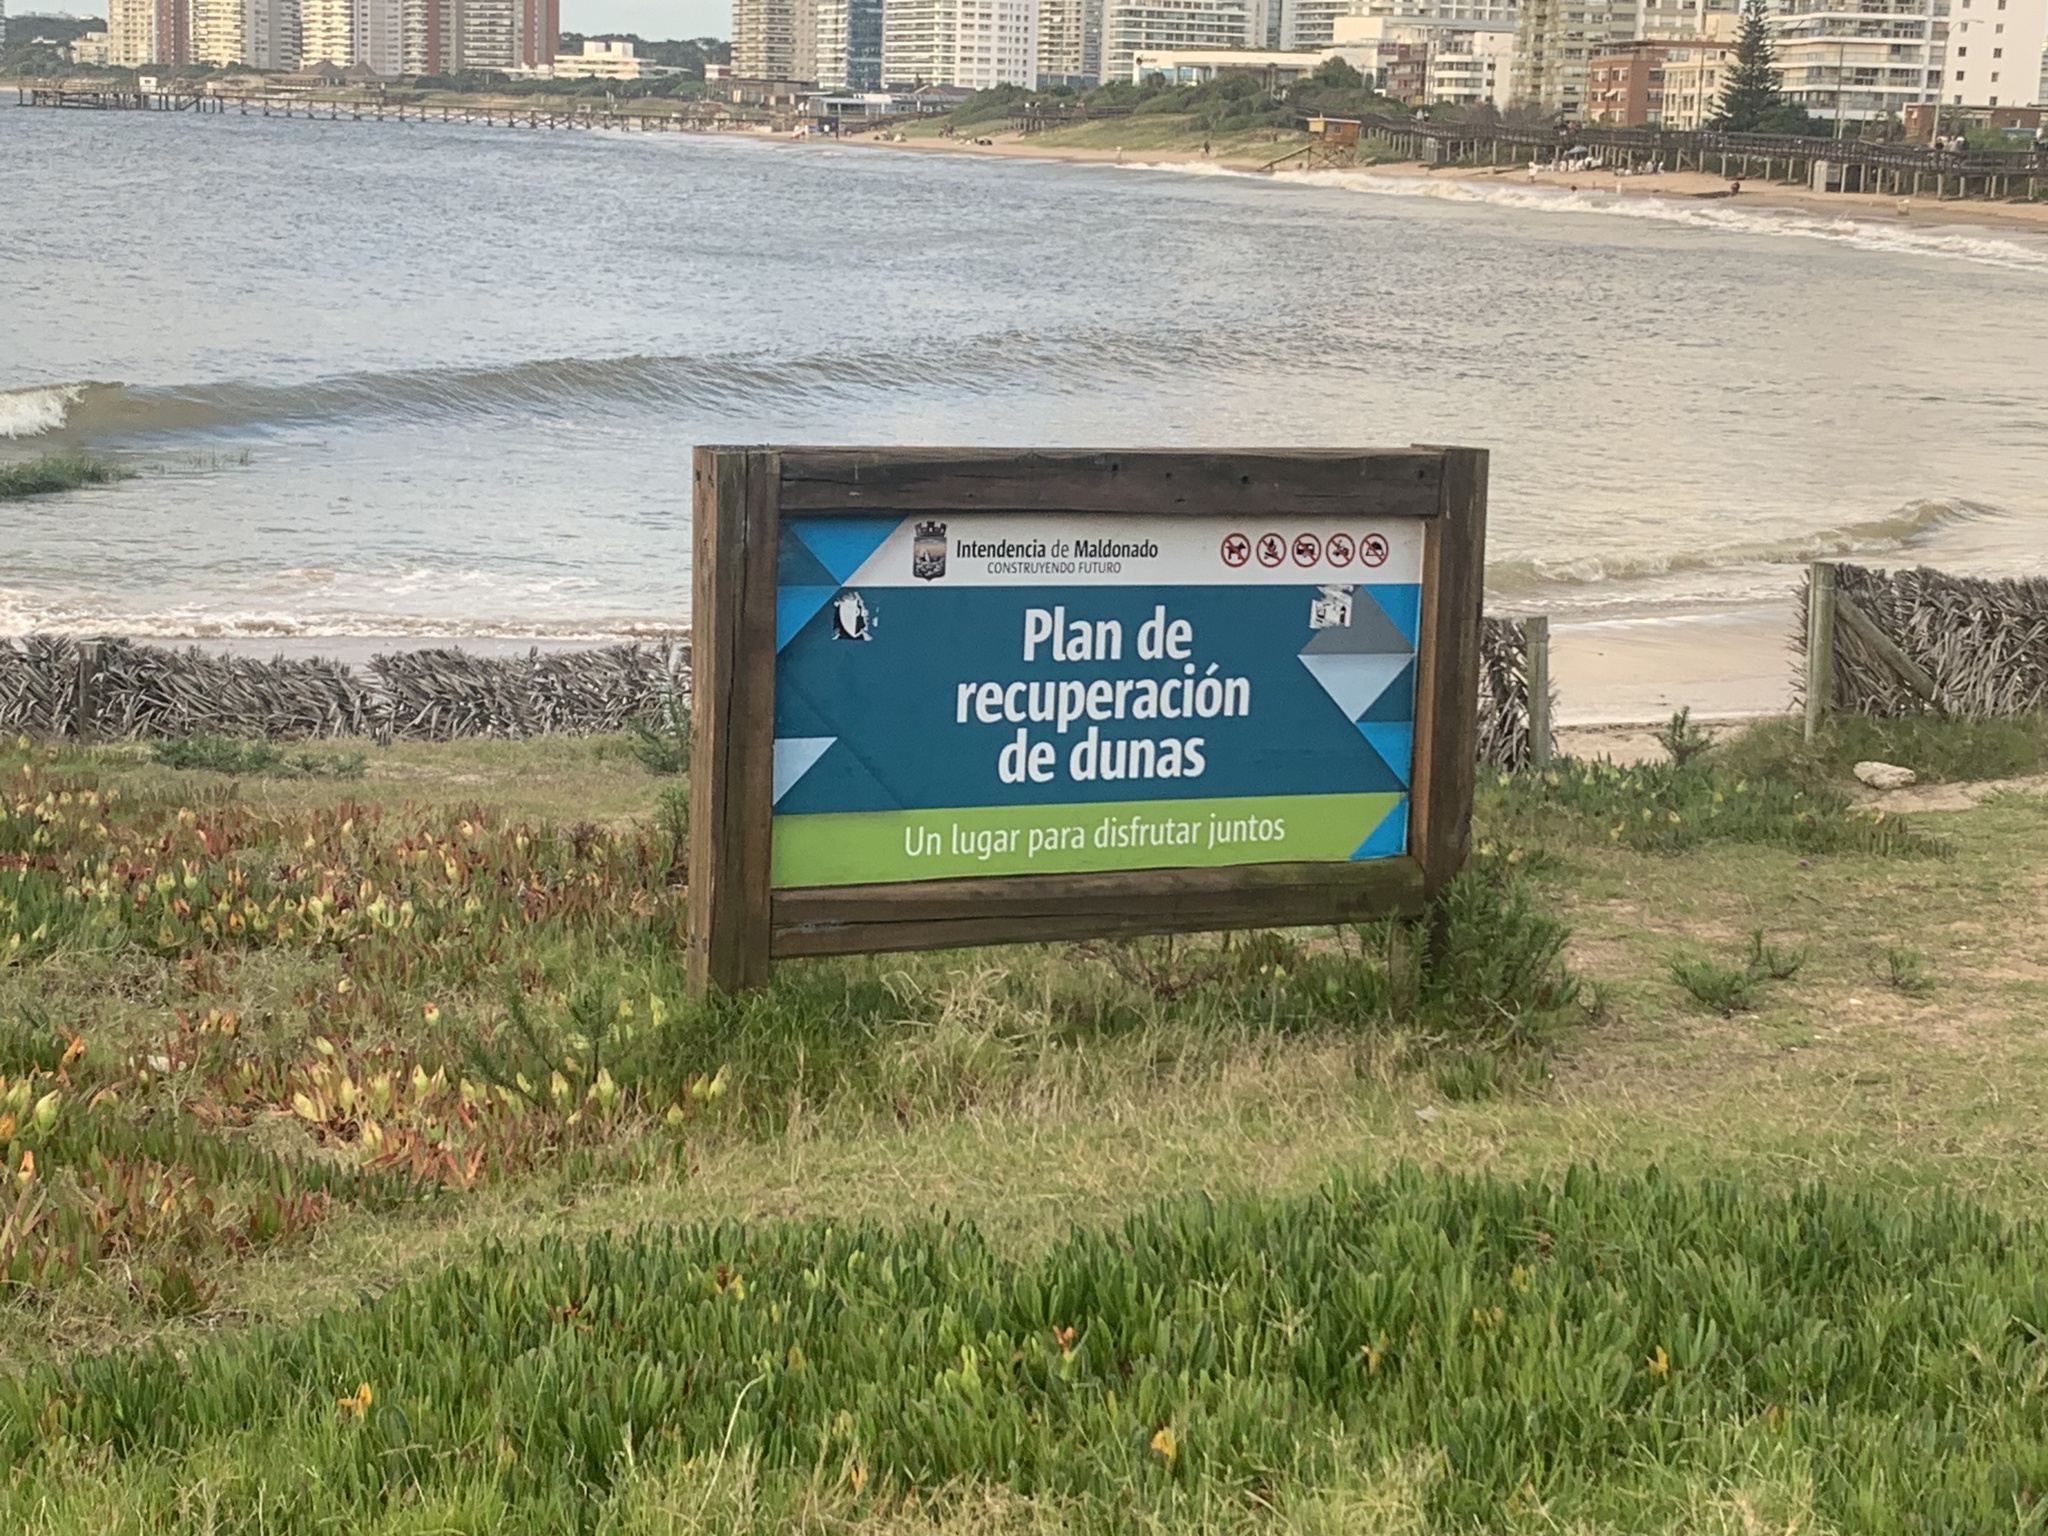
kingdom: Plantae
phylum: Tracheophyta
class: Magnoliopsida
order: Caryophyllales
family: Aizoaceae
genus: Carpobrotus
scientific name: Carpobrotus edulis
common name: Hottentot-fig
